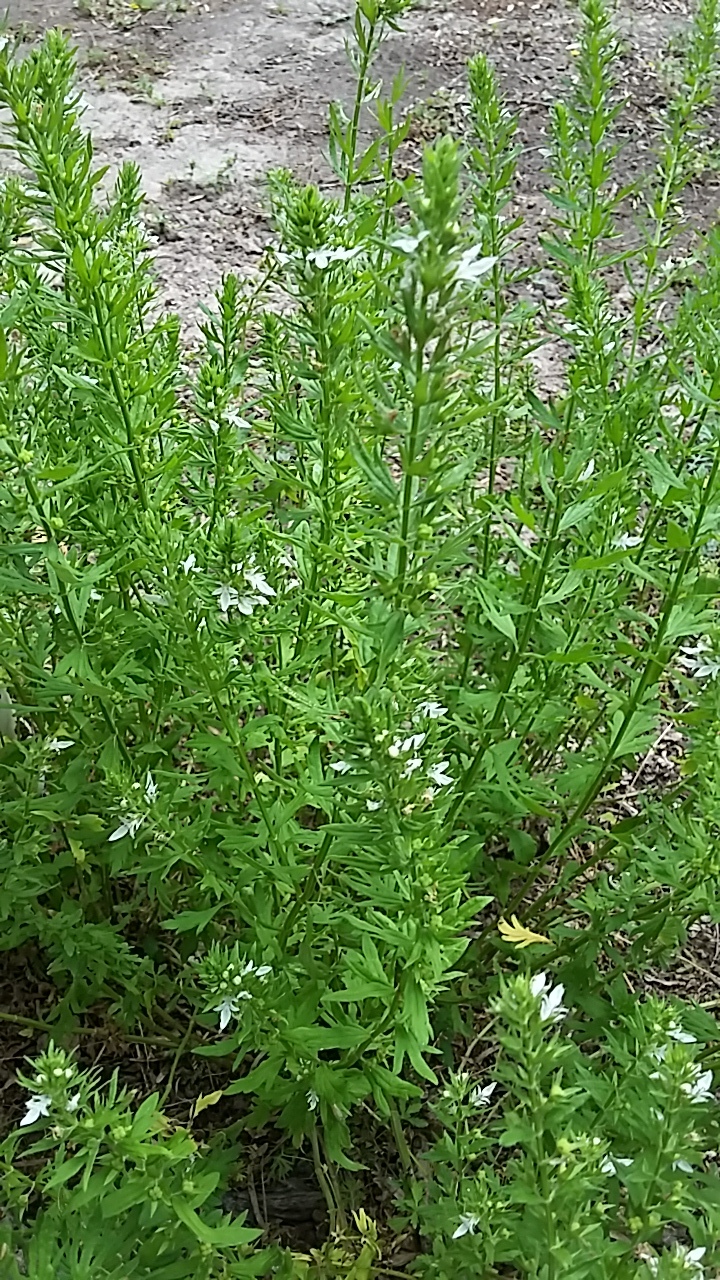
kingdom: Plantae
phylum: Tracheophyta
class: Magnoliopsida
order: Lamiales
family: Lamiaceae
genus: Teucrium
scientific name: Teucrium cubense
